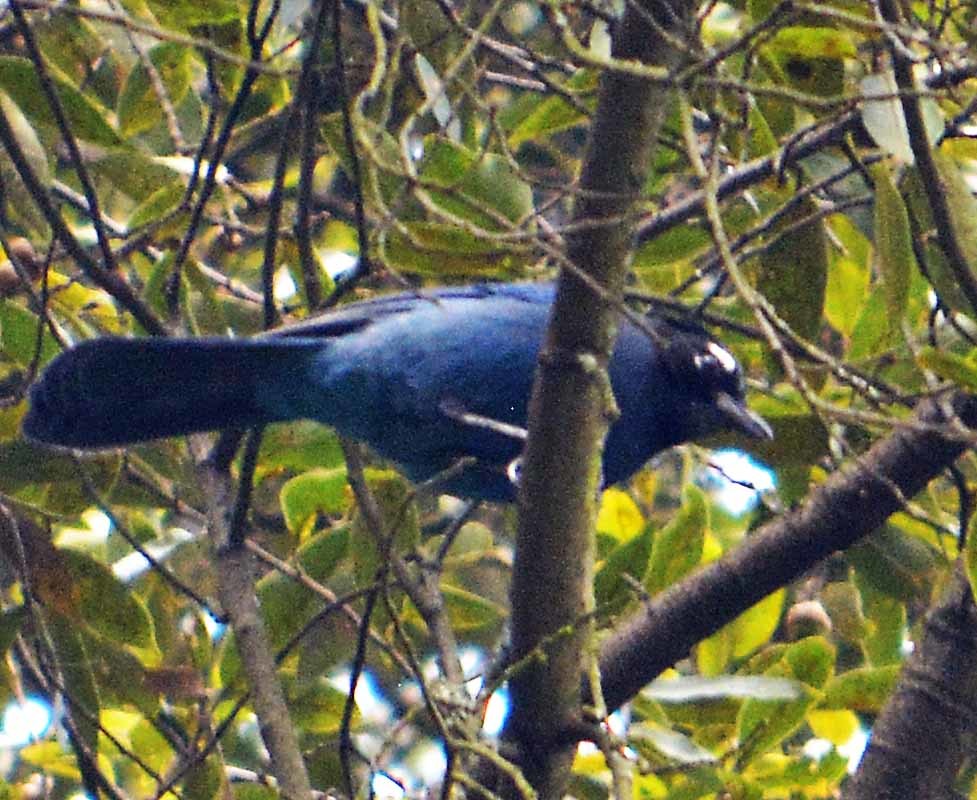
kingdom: Animalia
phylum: Chordata
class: Aves
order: Passeriformes
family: Corvidae
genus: Cyanocitta
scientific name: Cyanocitta stelleri
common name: Steller's jay
